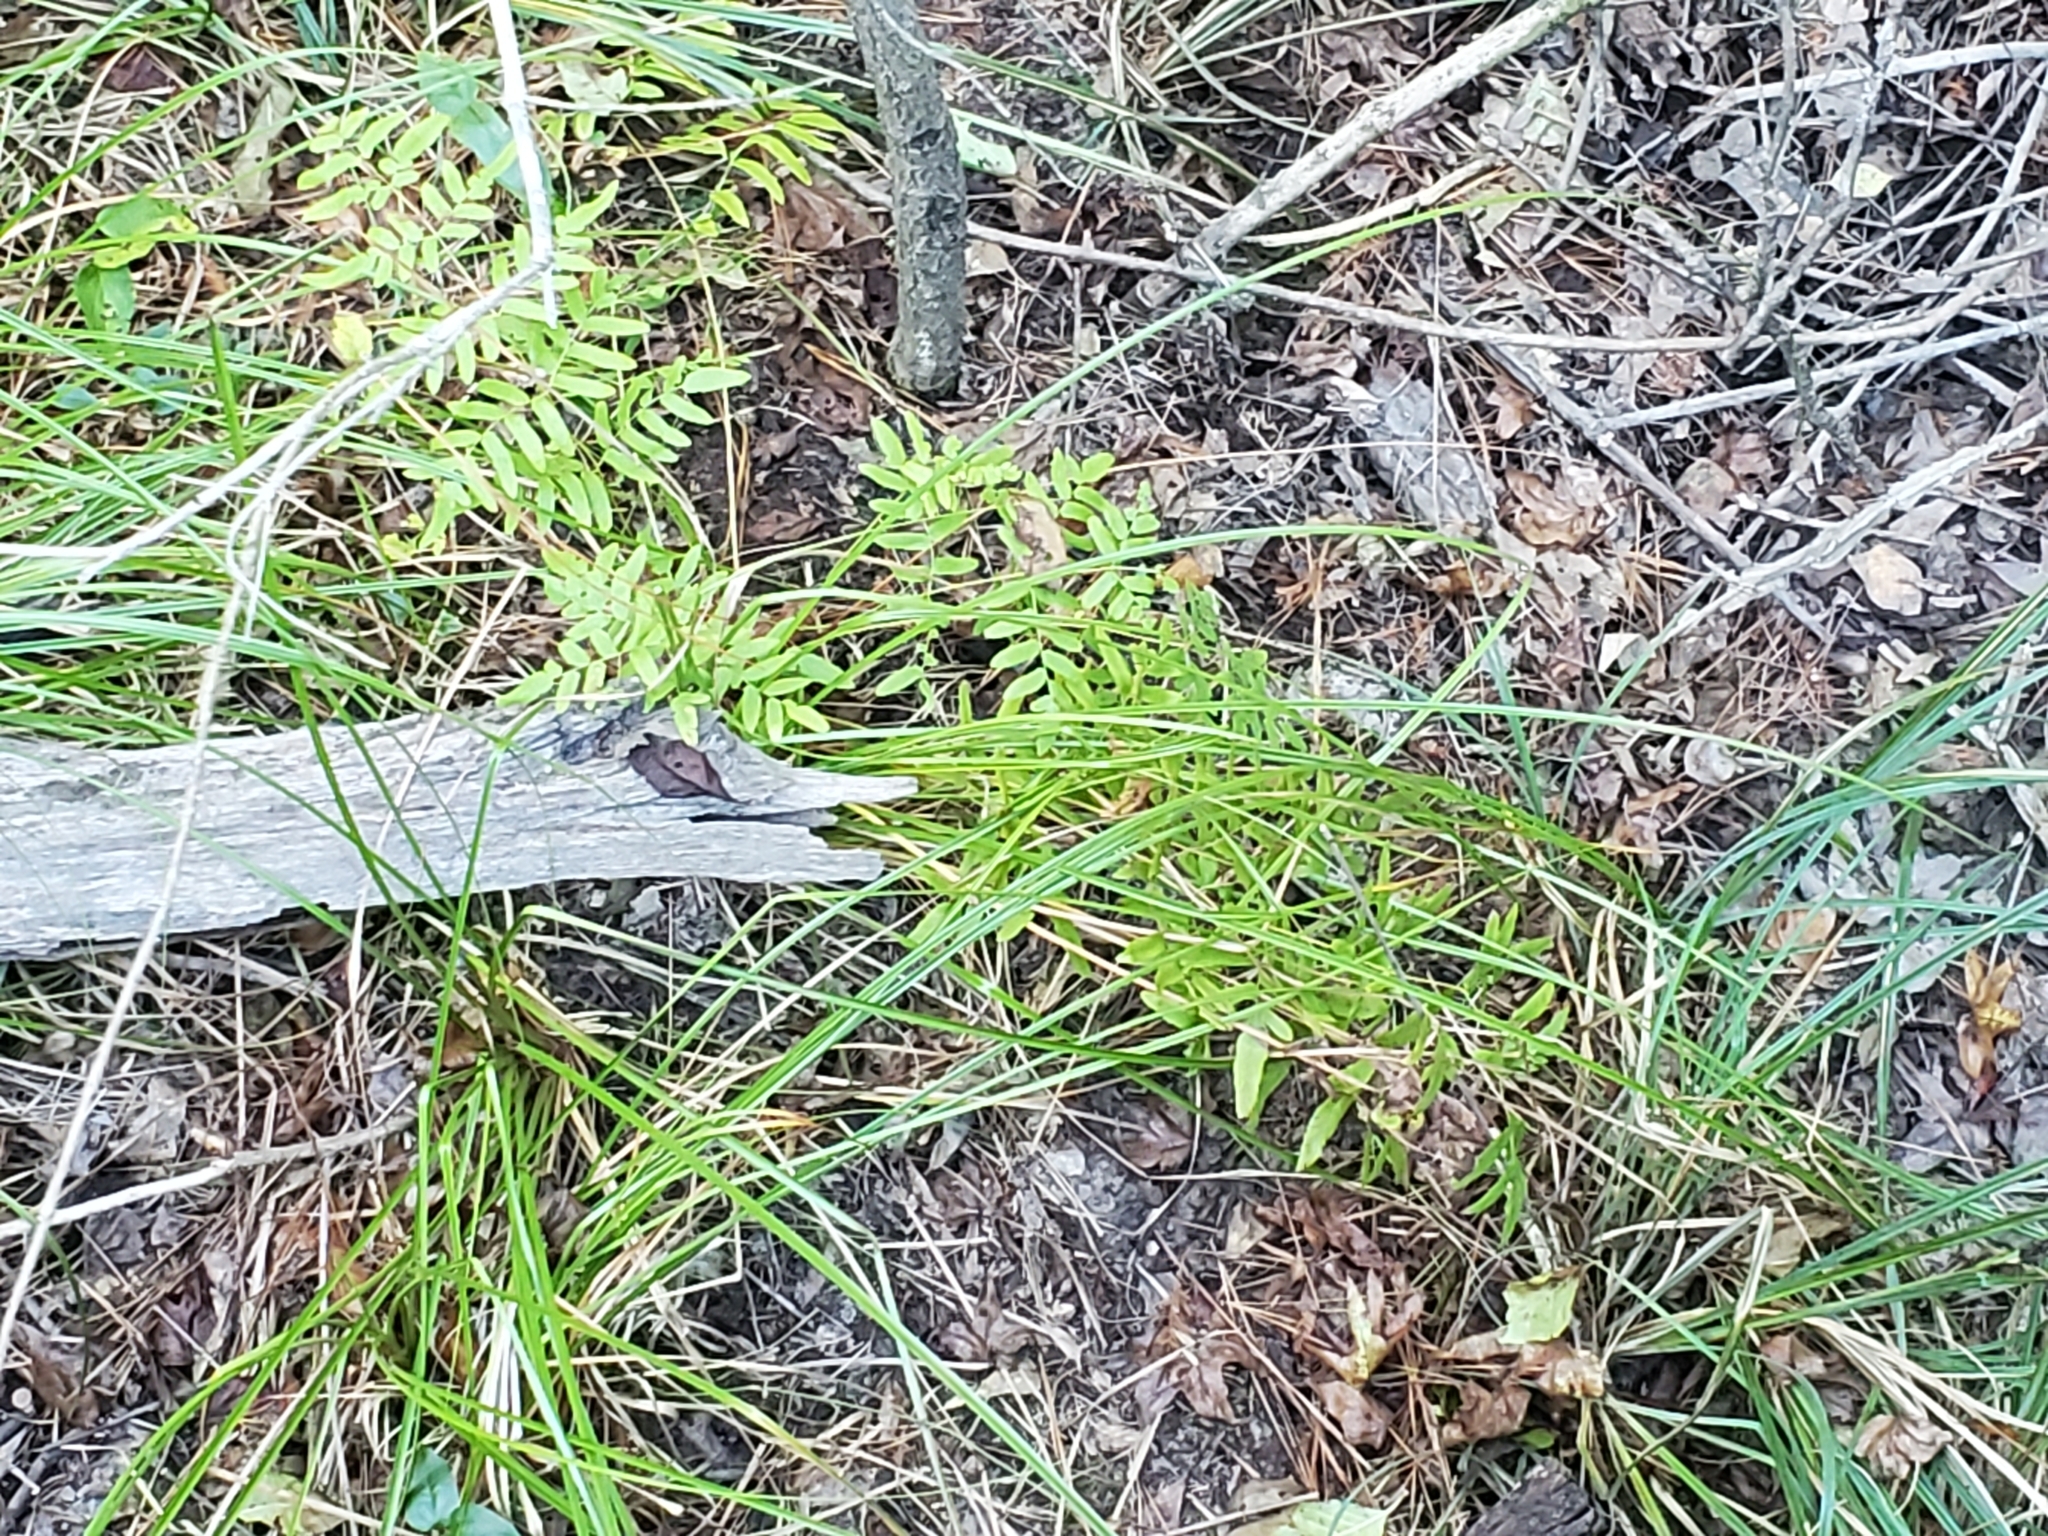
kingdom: Plantae
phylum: Tracheophyta
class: Polypodiopsida
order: Osmundales
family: Osmundaceae
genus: Osmunda
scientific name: Osmunda spectabilis
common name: American royal fern
